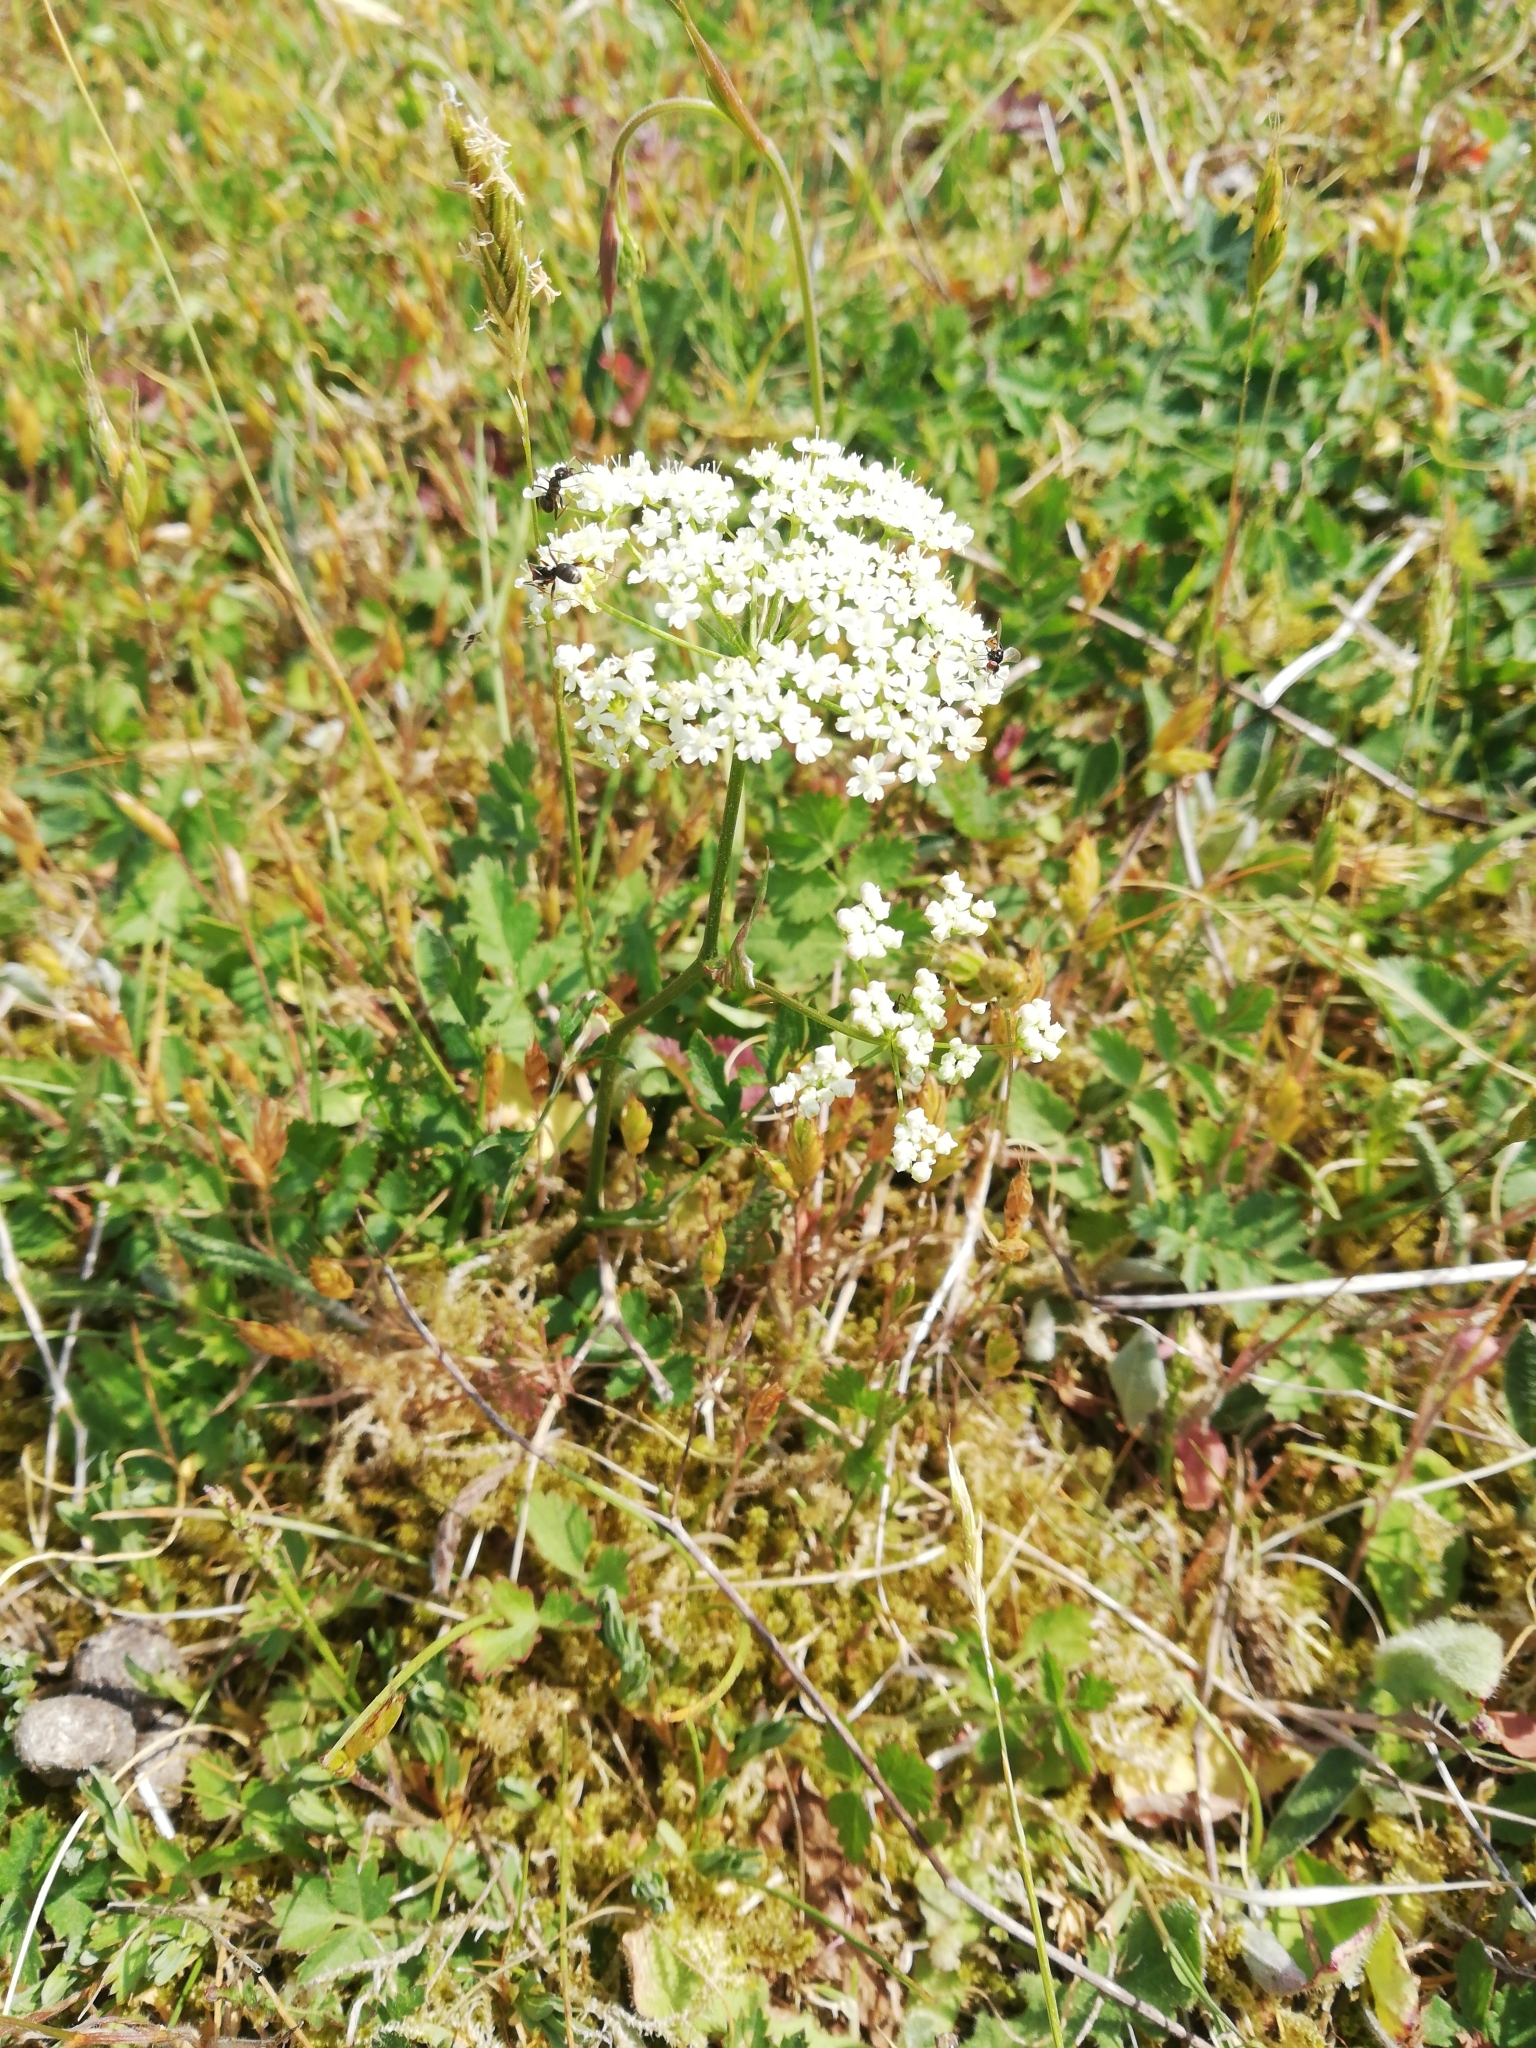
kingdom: Plantae
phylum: Tracheophyta
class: Magnoliopsida
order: Apiales
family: Apiaceae
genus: Pimpinella
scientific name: Pimpinella saxifraga
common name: Burnet-saxifrage
